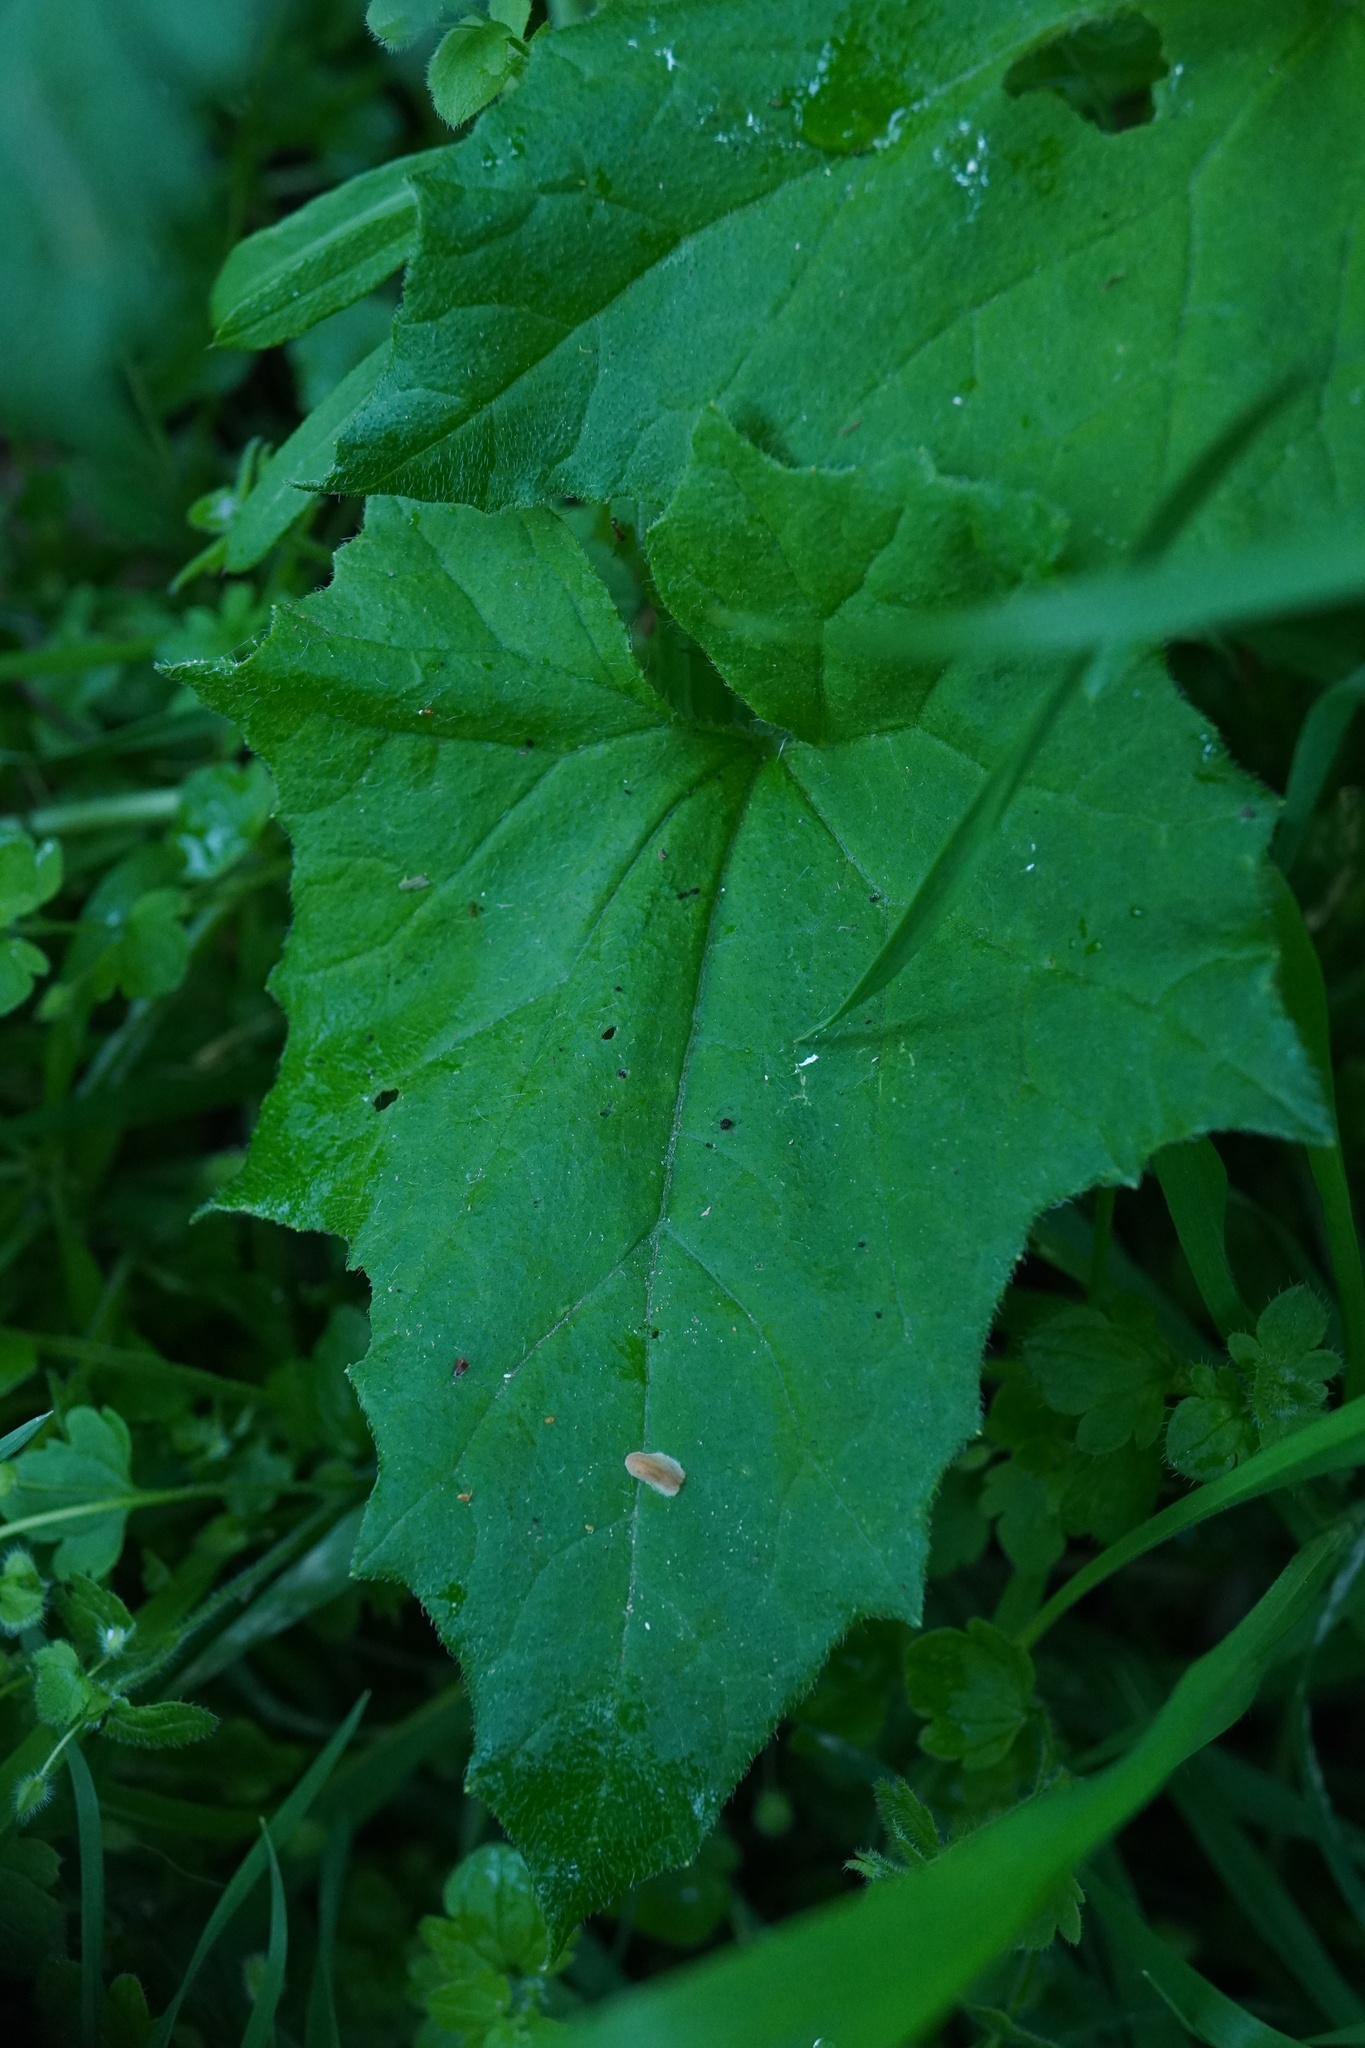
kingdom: Plantae
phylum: Tracheophyta
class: Magnoliopsida
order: Cucurbitales
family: Cucurbitaceae
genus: Bryonia
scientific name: Bryonia alba
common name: White bryony
